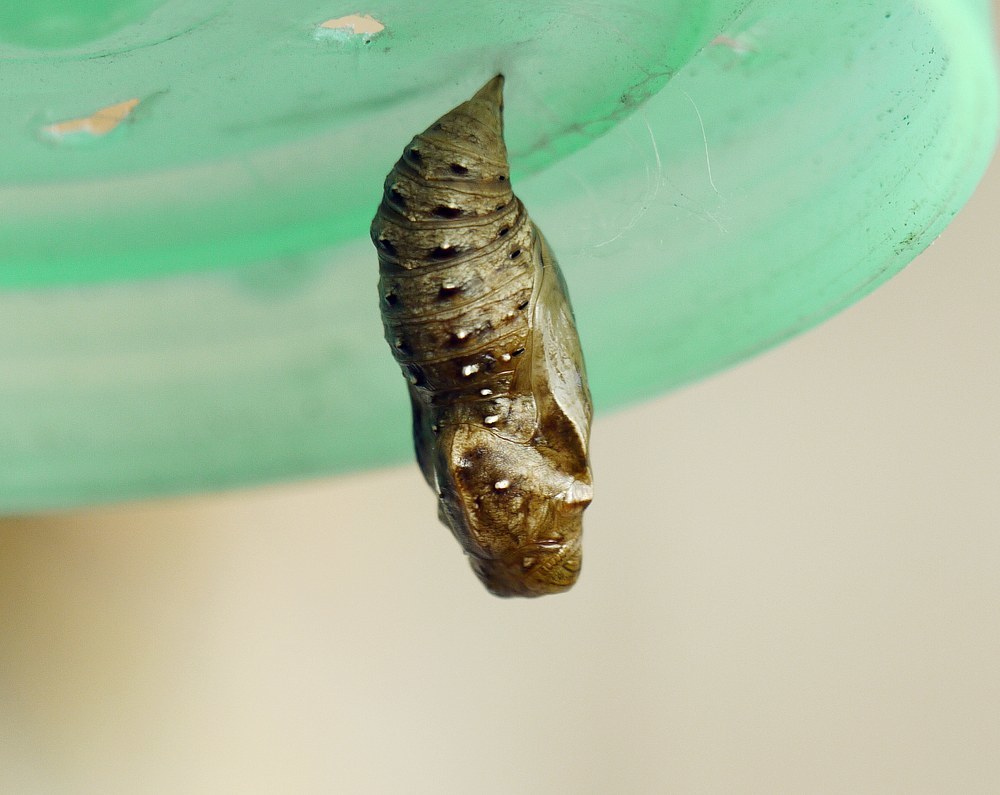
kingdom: Animalia
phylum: Arthropoda
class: Insecta
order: Lepidoptera
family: Nymphalidae
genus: Damora
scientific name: Damora pandora
